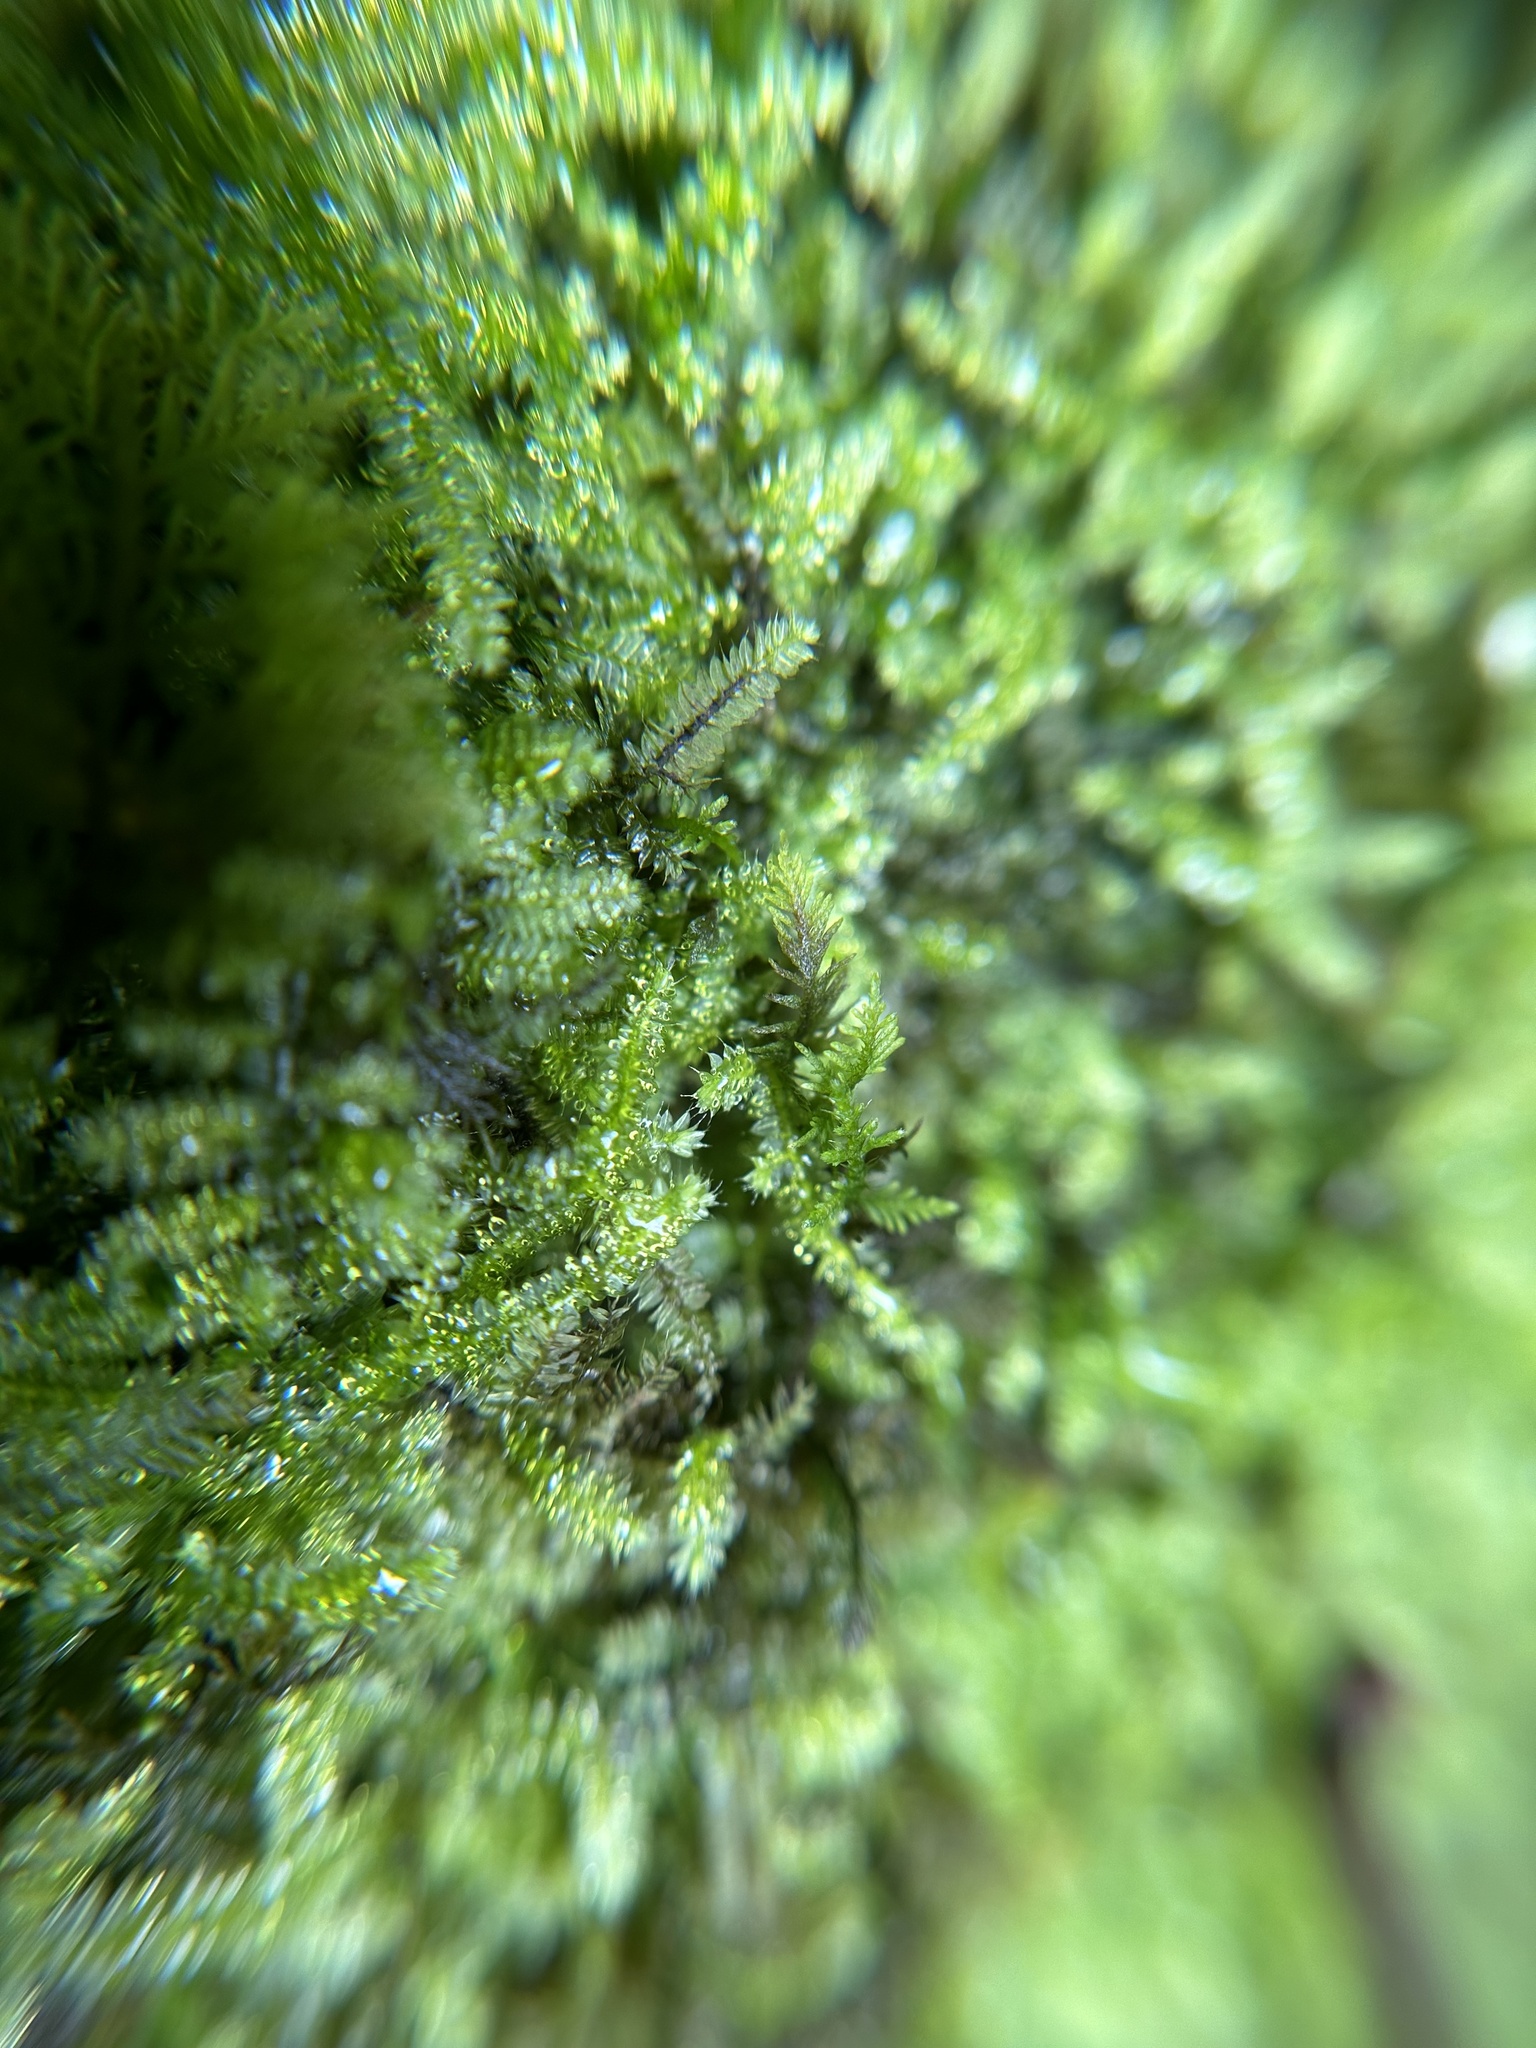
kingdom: Plantae
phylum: Bryophyta
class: Bryopsida
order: Hypnodendrales
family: Racopilaceae
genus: Racopilum
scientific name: Racopilum cuspidigerum
